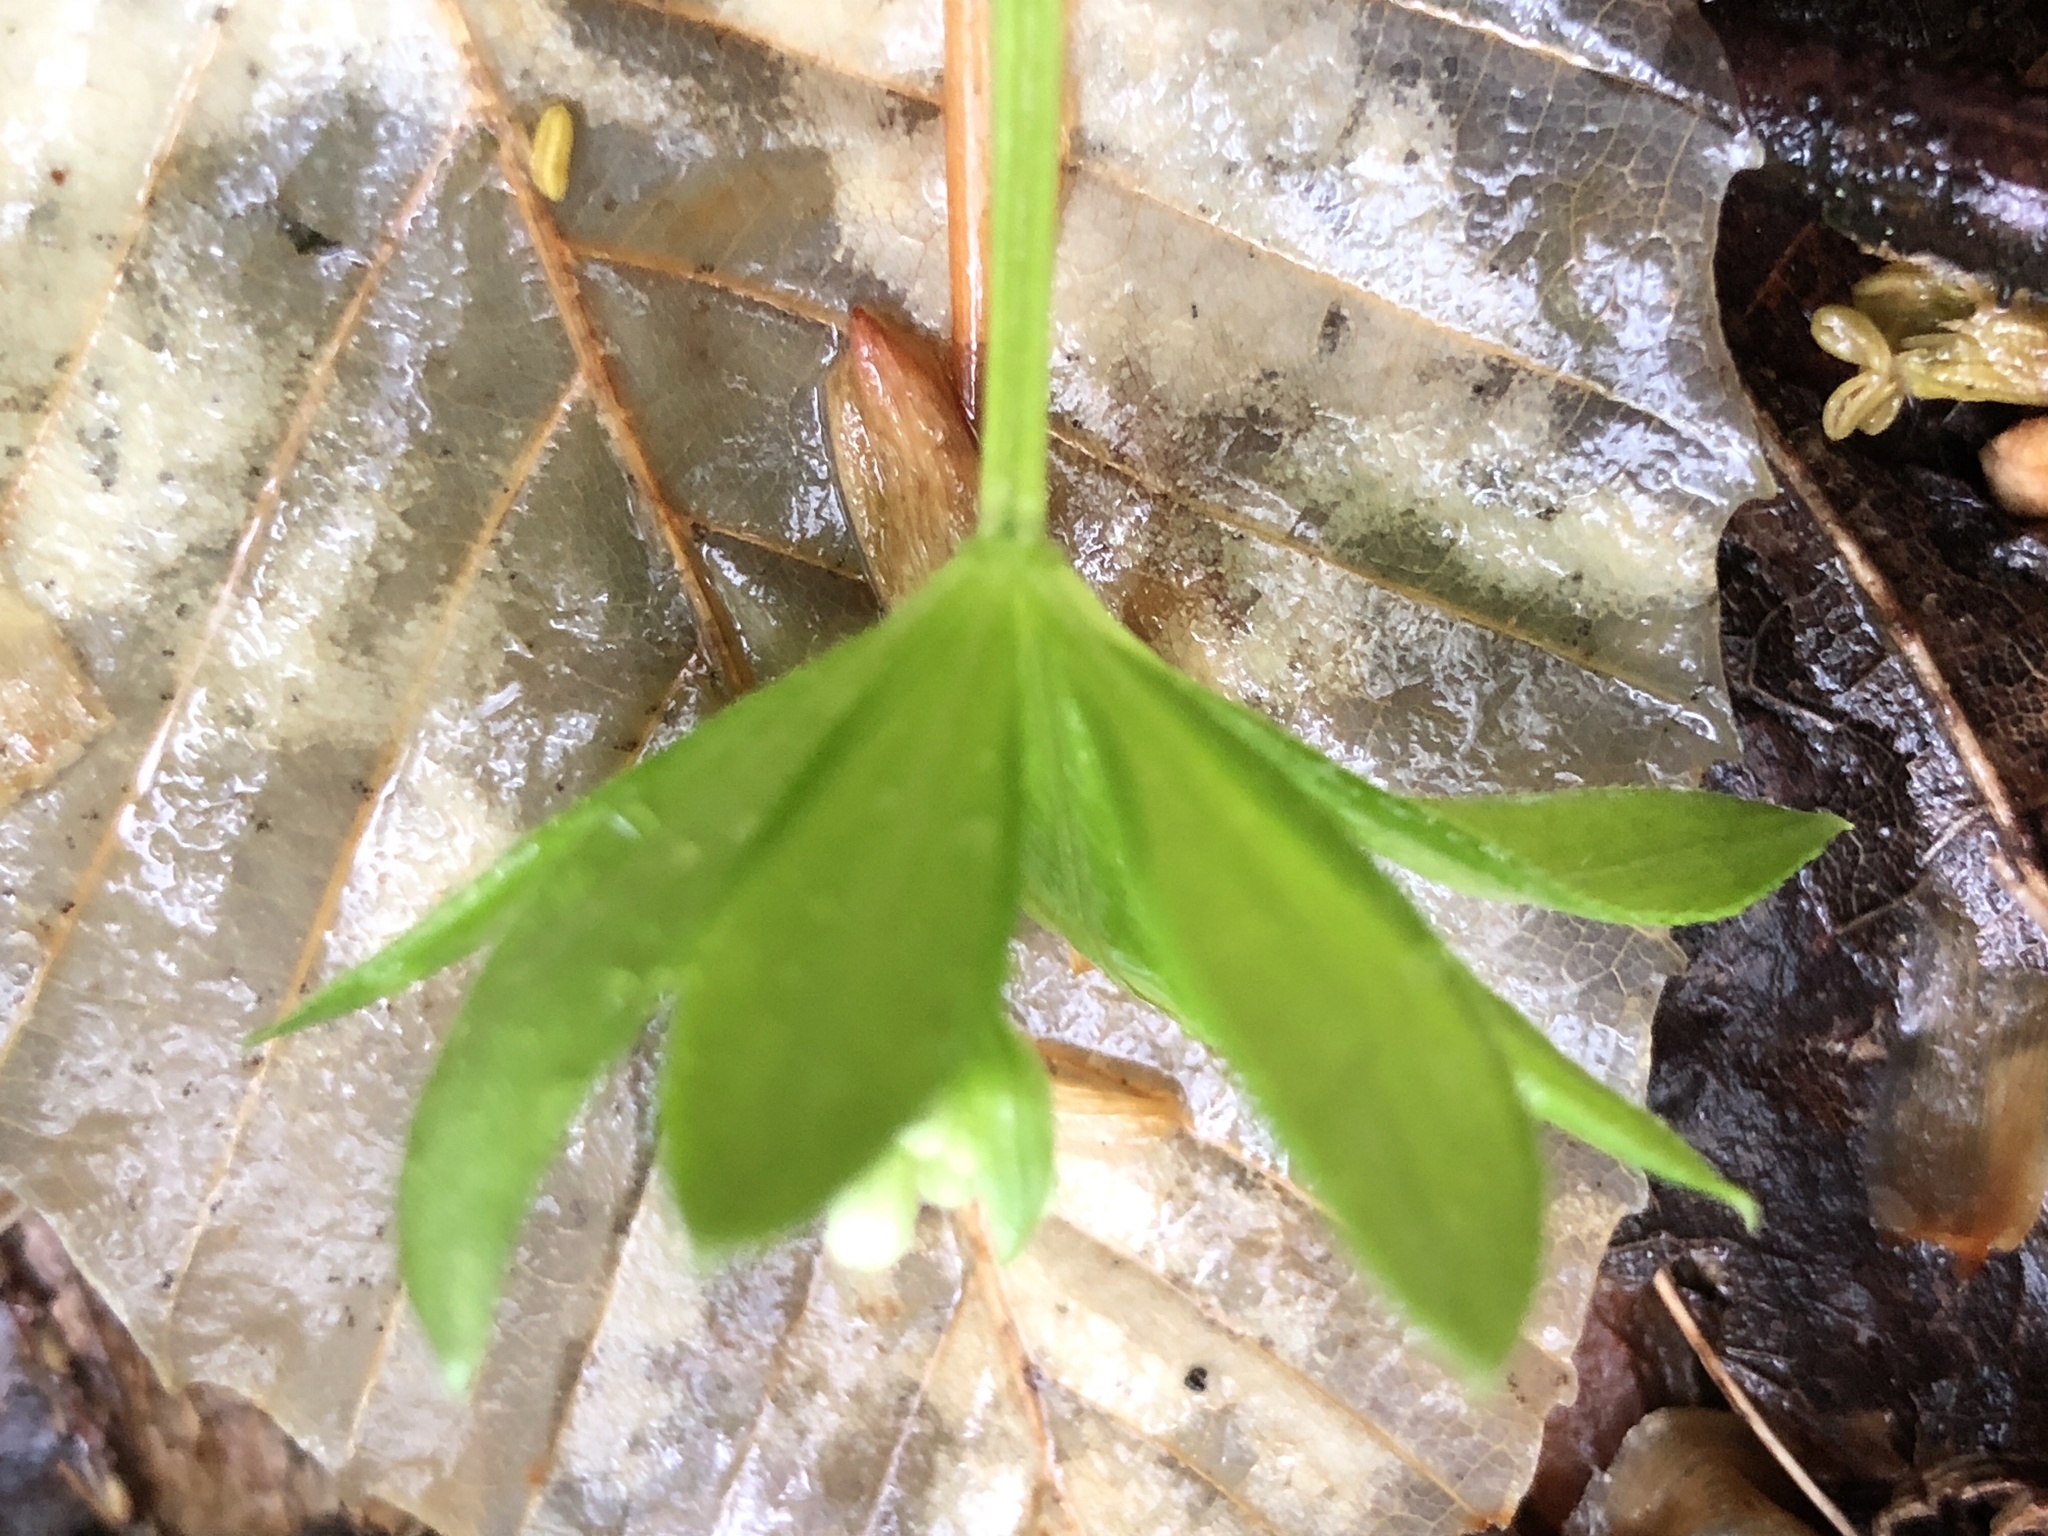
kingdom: Plantae
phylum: Tracheophyta
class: Magnoliopsida
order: Gentianales
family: Rubiaceae
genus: Galium
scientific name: Galium odoratum
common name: Sweet woodruff
